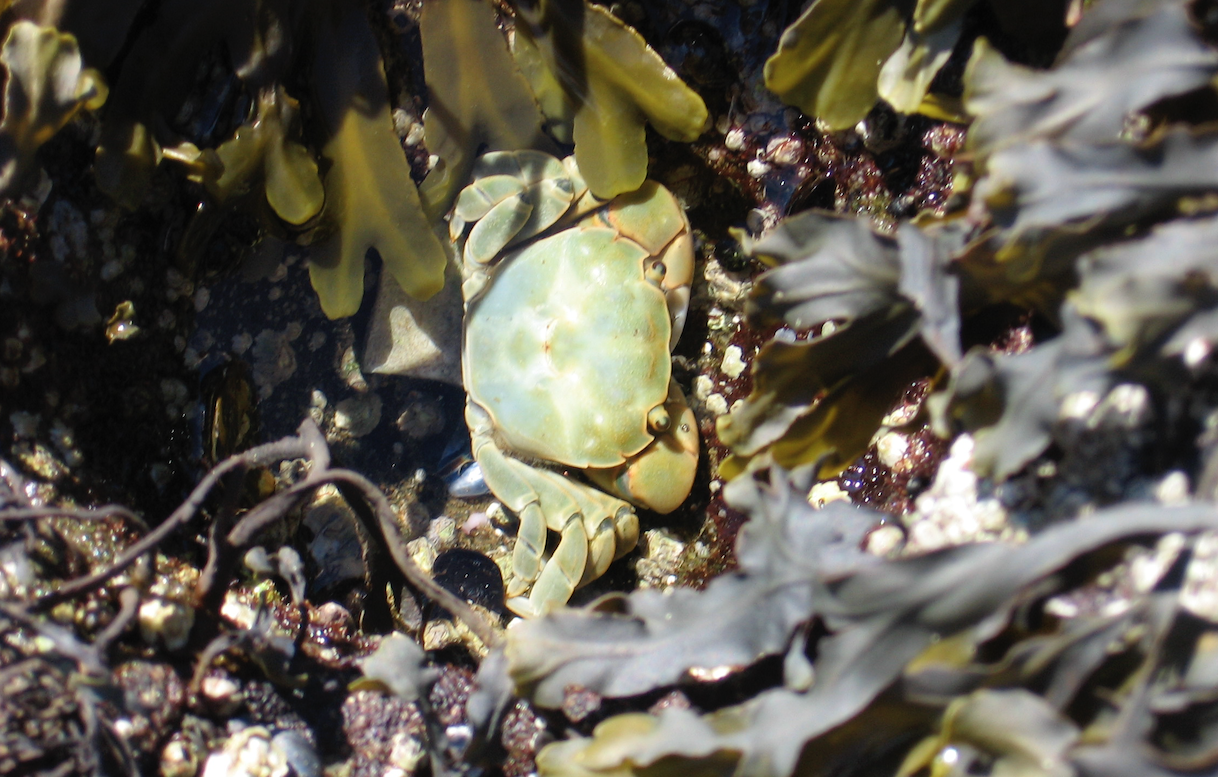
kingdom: Animalia
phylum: Arthropoda
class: Malacostraca
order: Decapoda
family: Varunidae
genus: Hemigrapsus
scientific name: Hemigrapsus nudus
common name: Purple shore crab
